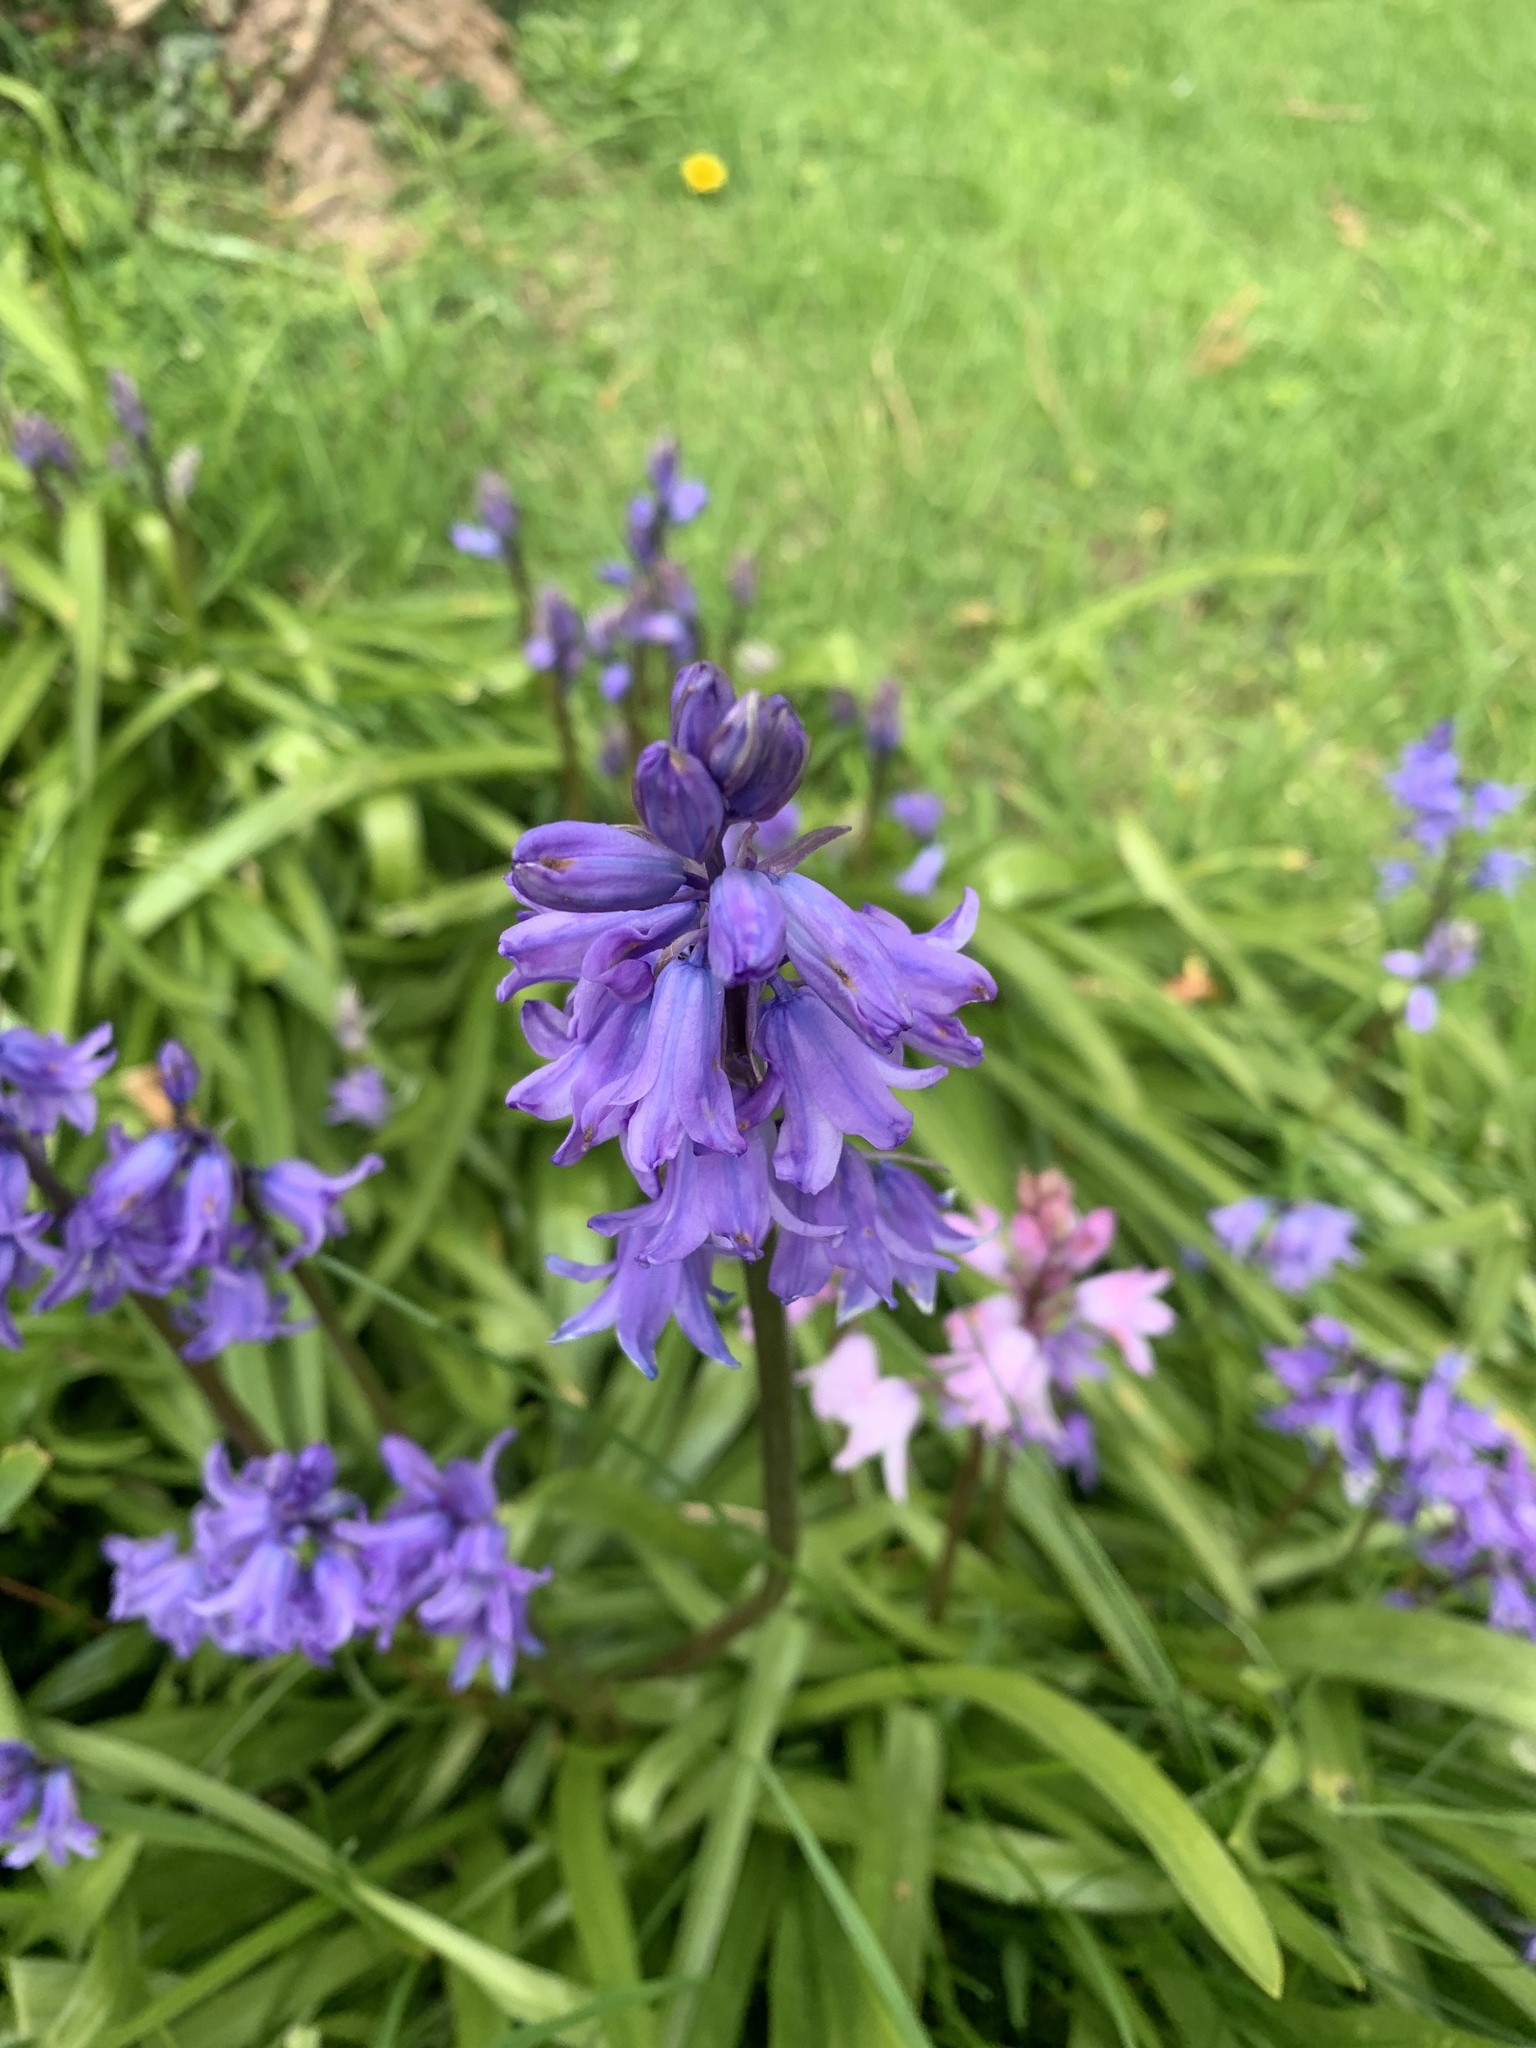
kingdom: Plantae
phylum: Tracheophyta
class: Liliopsida
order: Asparagales
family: Asparagaceae
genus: Hyacinthoides
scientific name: Hyacinthoides hispanica
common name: Spanish bluebell
